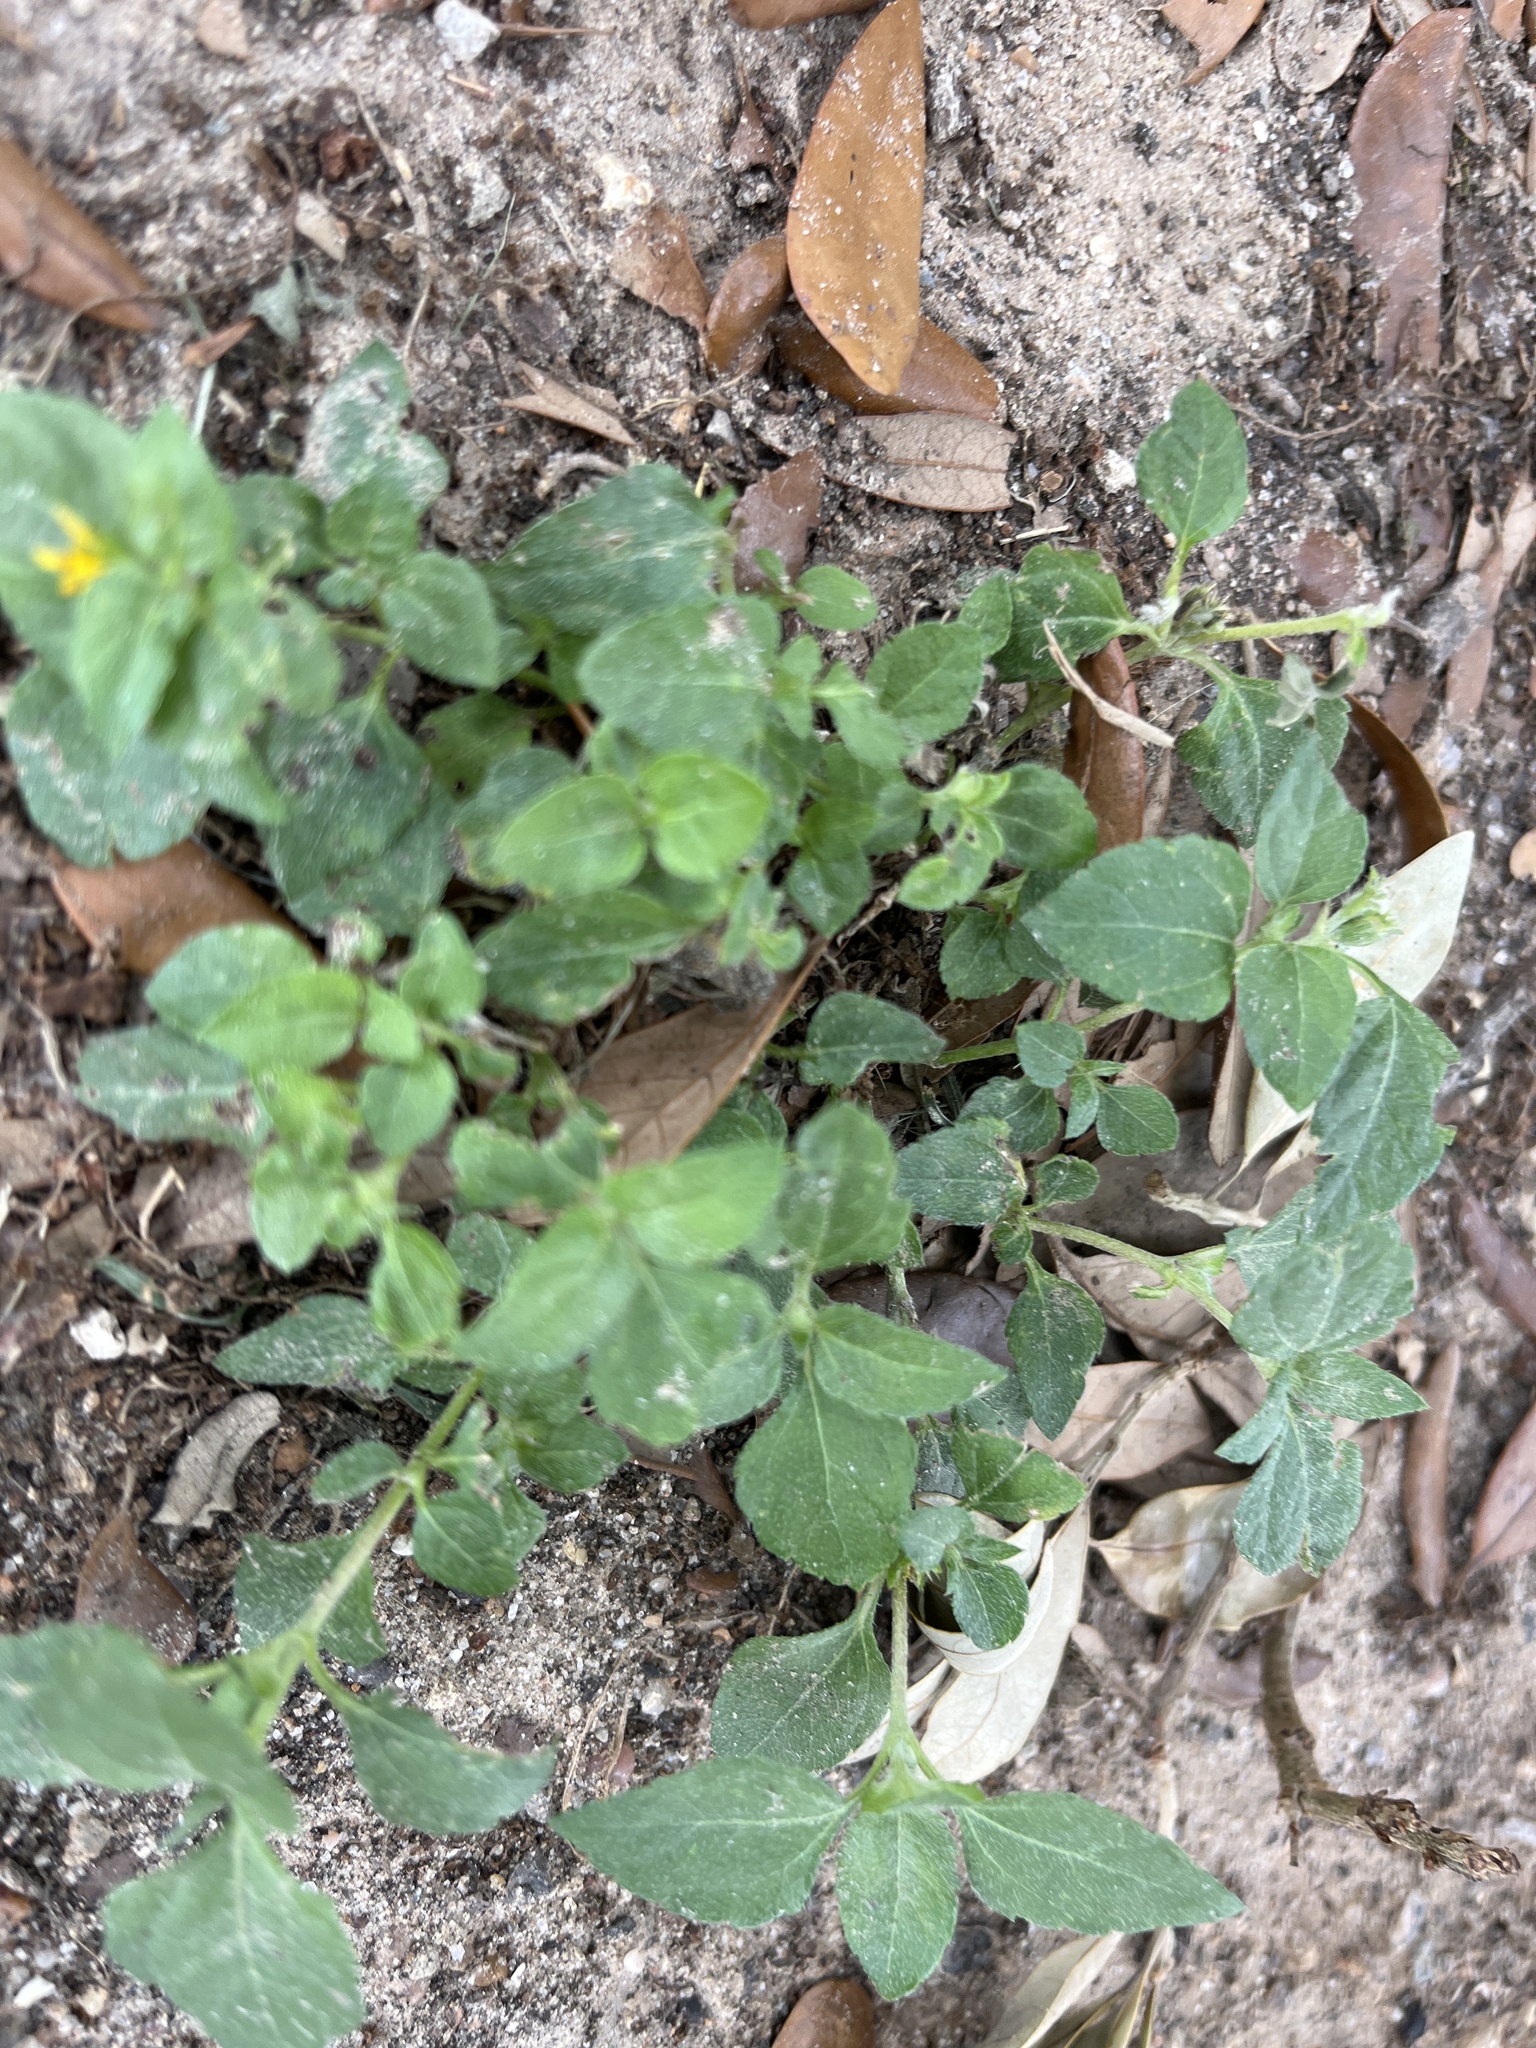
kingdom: Plantae
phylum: Tracheophyta
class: Magnoliopsida
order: Asterales
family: Asteraceae
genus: Calyptocarpus
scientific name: Calyptocarpus vialis
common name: Straggler daisy
